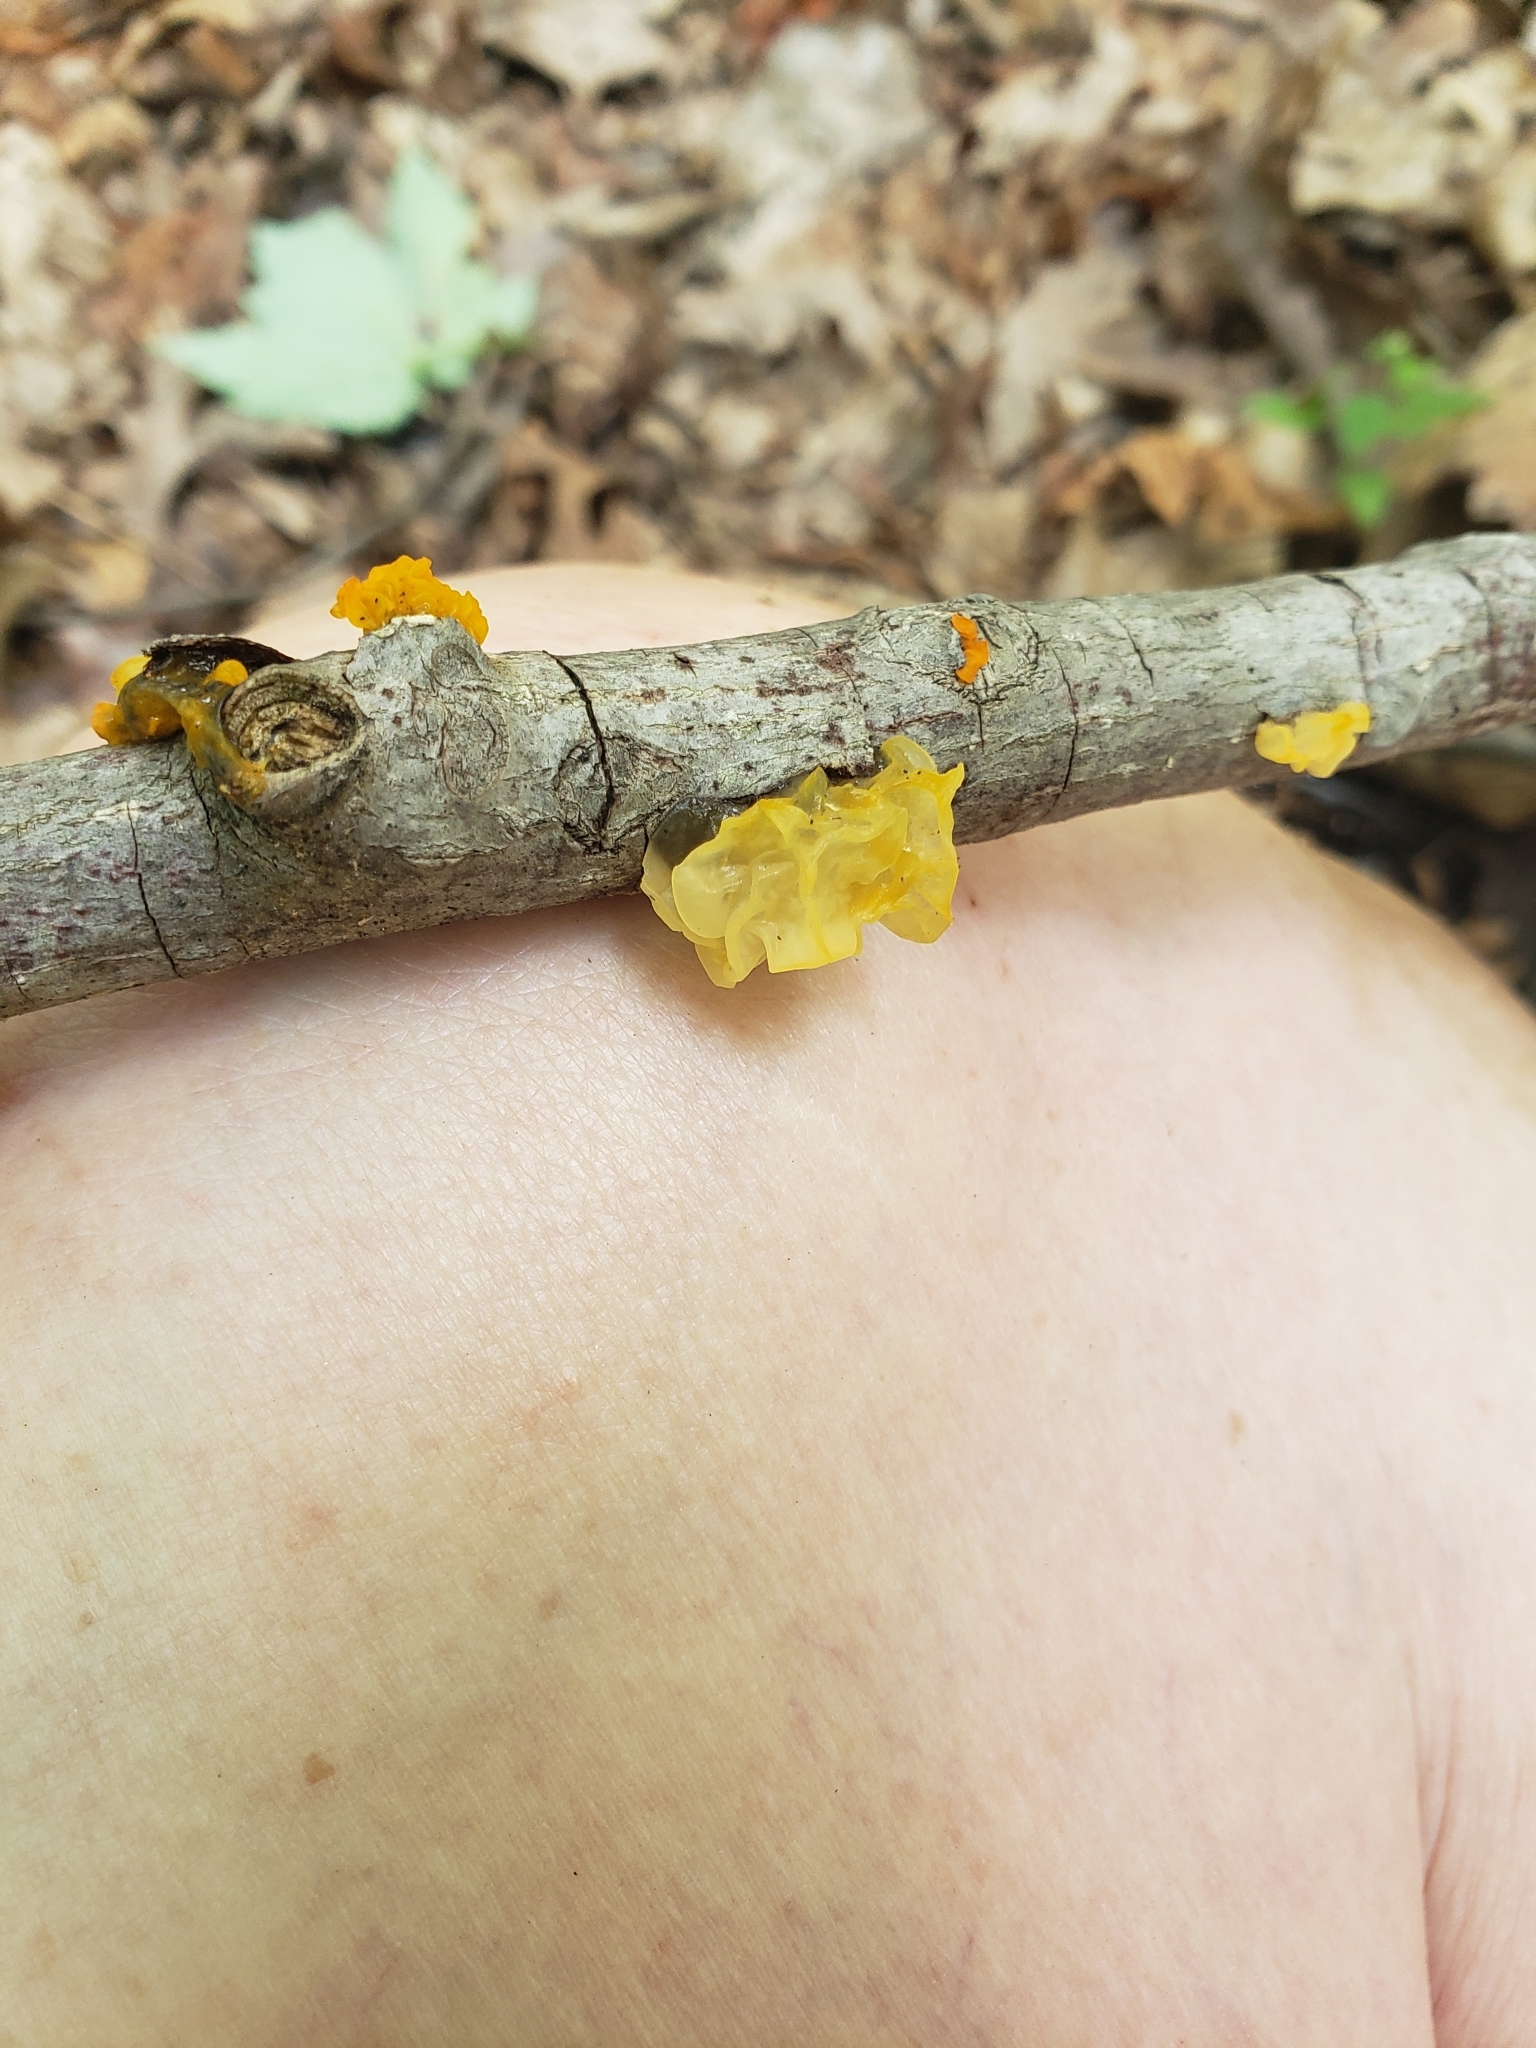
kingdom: Fungi
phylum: Basidiomycota
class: Tremellomycetes
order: Tremellales
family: Tremellaceae
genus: Tremella
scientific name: Tremella mesenterica
